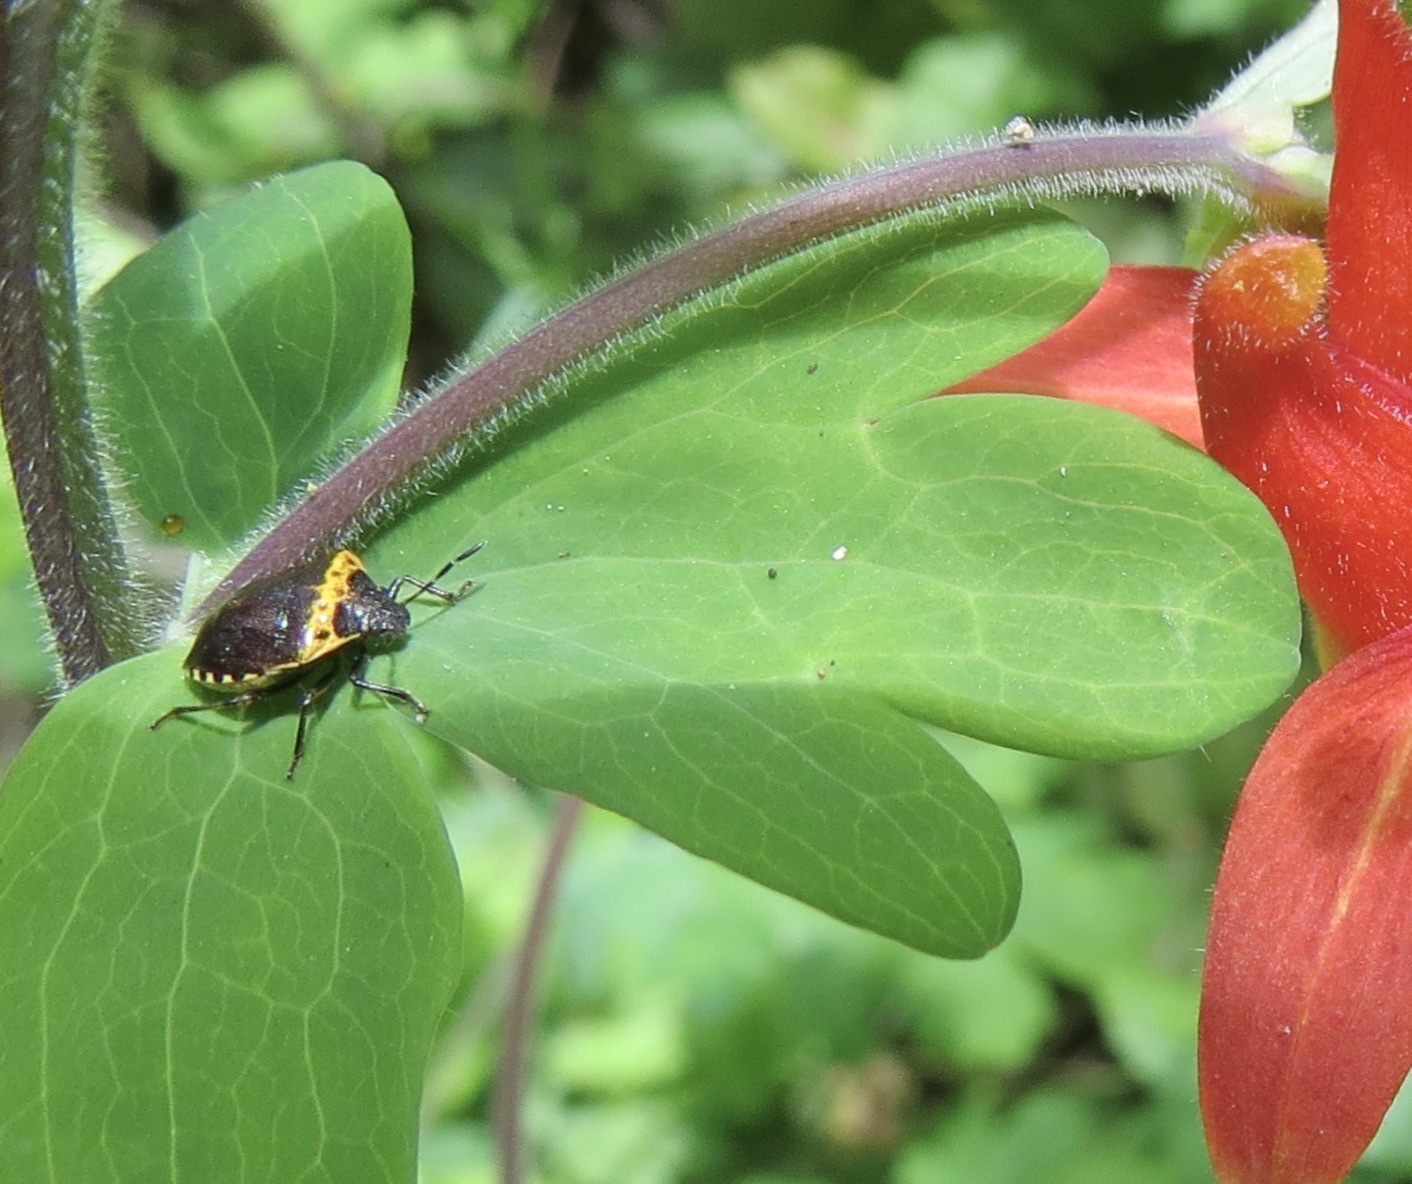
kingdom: Animalia
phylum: Arthropoda
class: Insecta
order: Hemiptera
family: Pentatomidae
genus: Cosmopepla
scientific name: Cosmopepla uhleri
